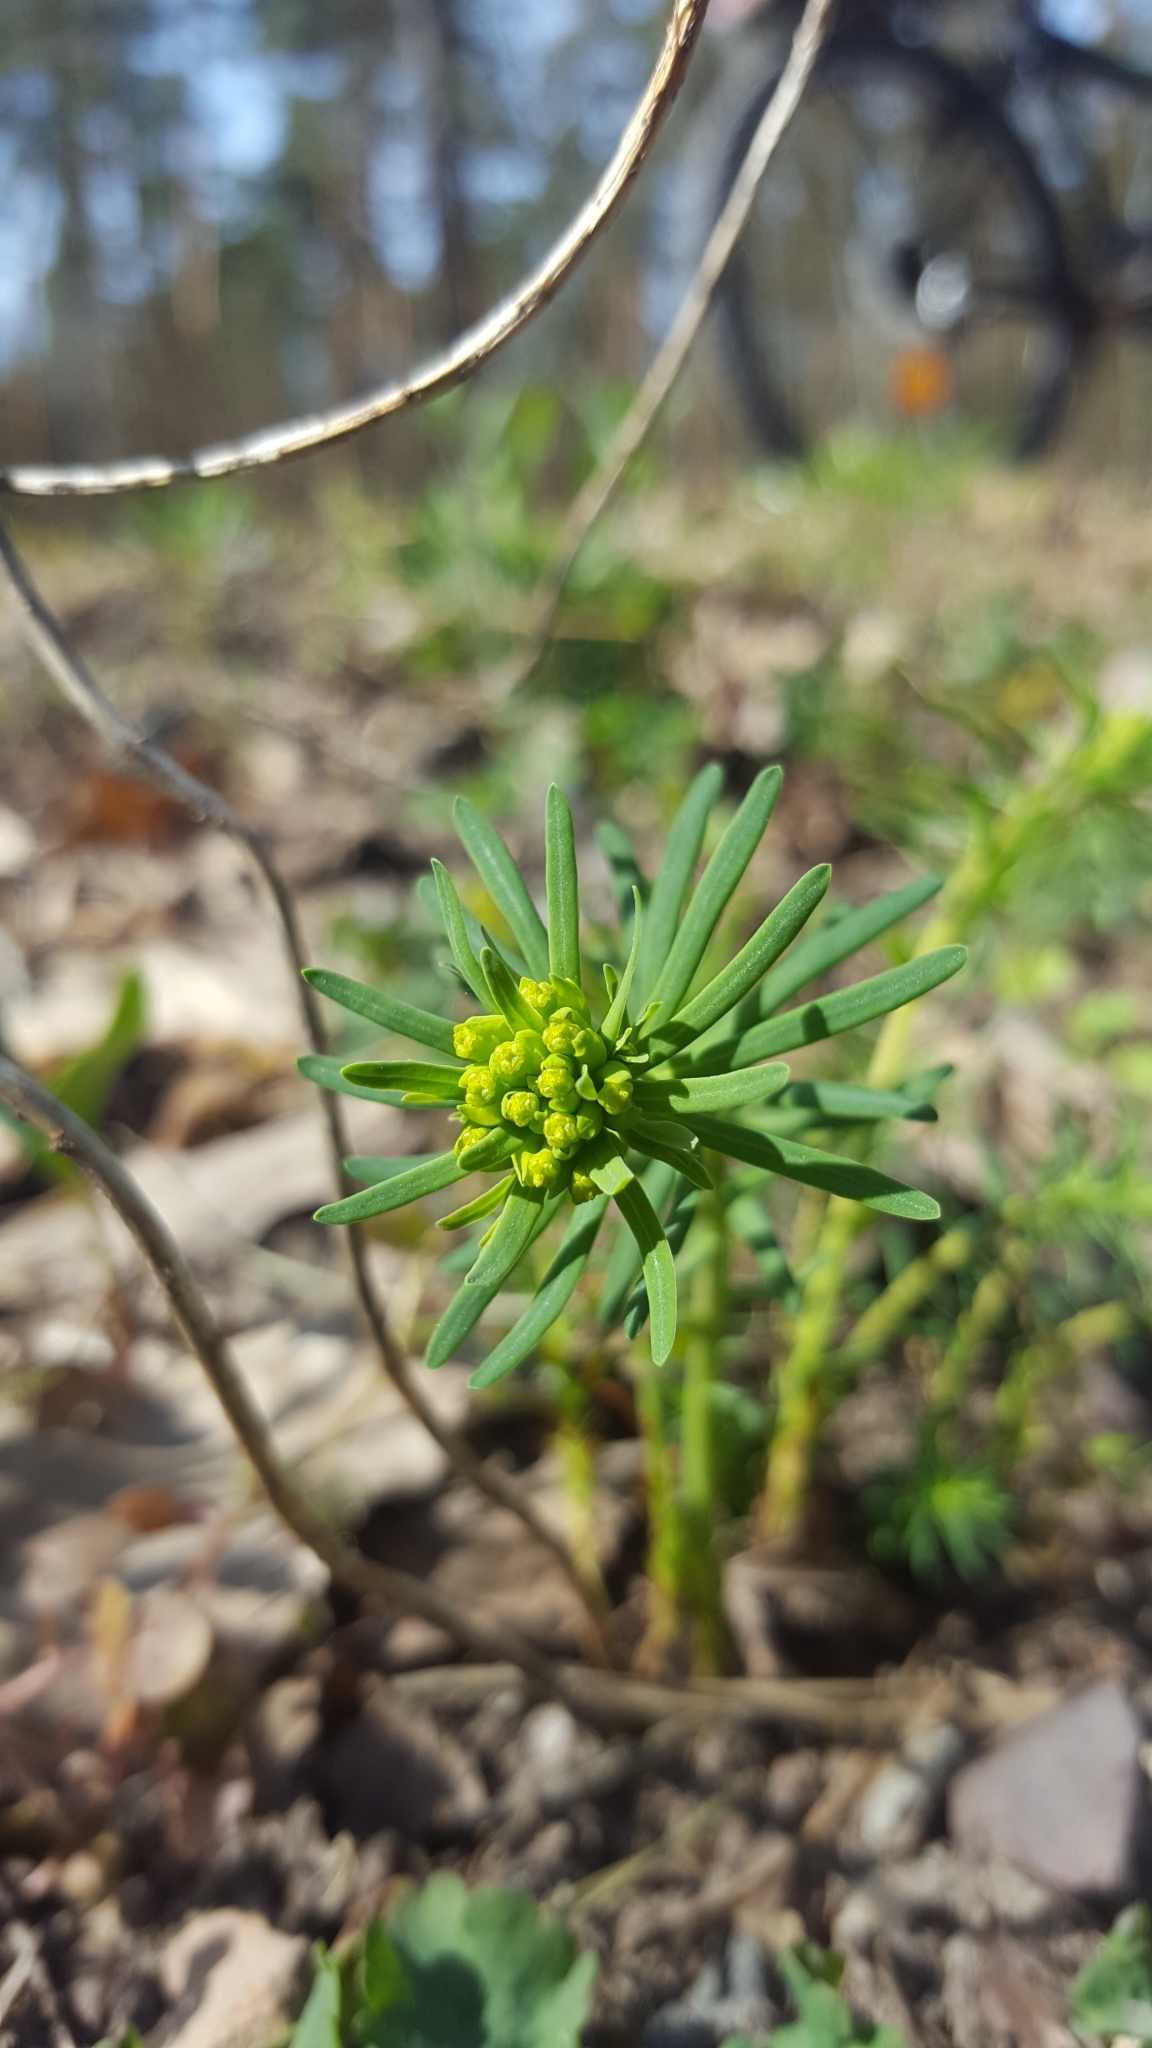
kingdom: Plantae
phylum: Tracheophyta
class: Magnoliopsida
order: Malpighiales
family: Euphorbiaceae
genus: Euphorbia
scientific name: Euphorbia cyparissias
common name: Cypress spurge
